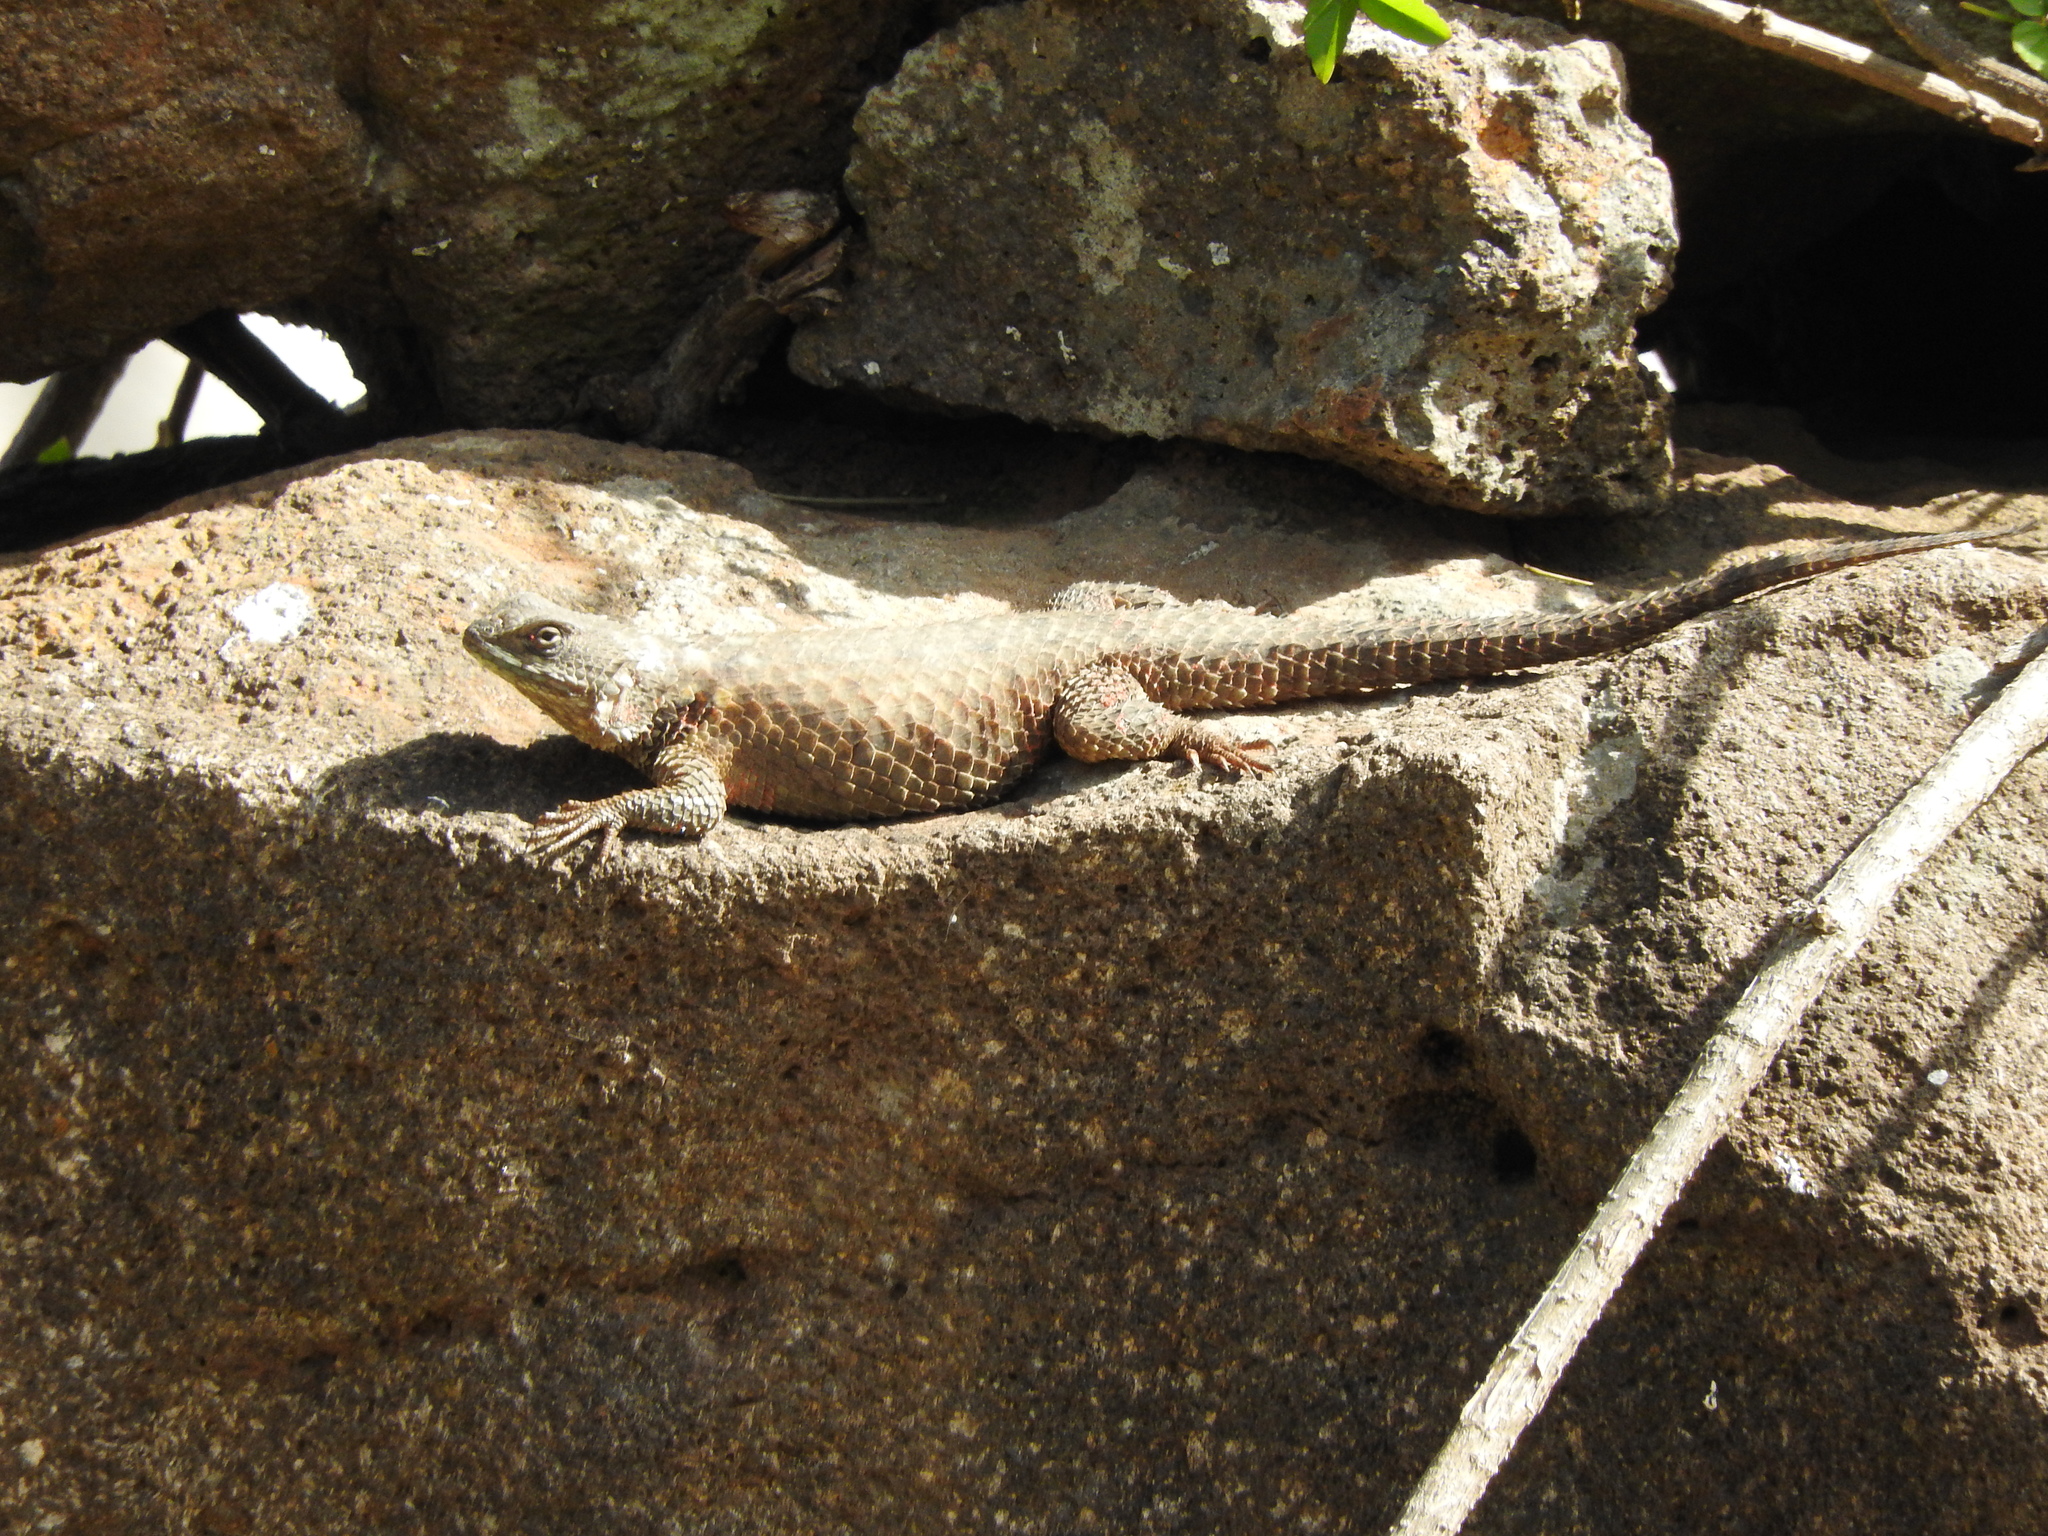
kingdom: Animalia
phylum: Chordata
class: Squamata
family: Phrynosomatidae
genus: Sceloporus
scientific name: Sceloporus torquatus
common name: Central plateau torquate lizard [melanogaster]
